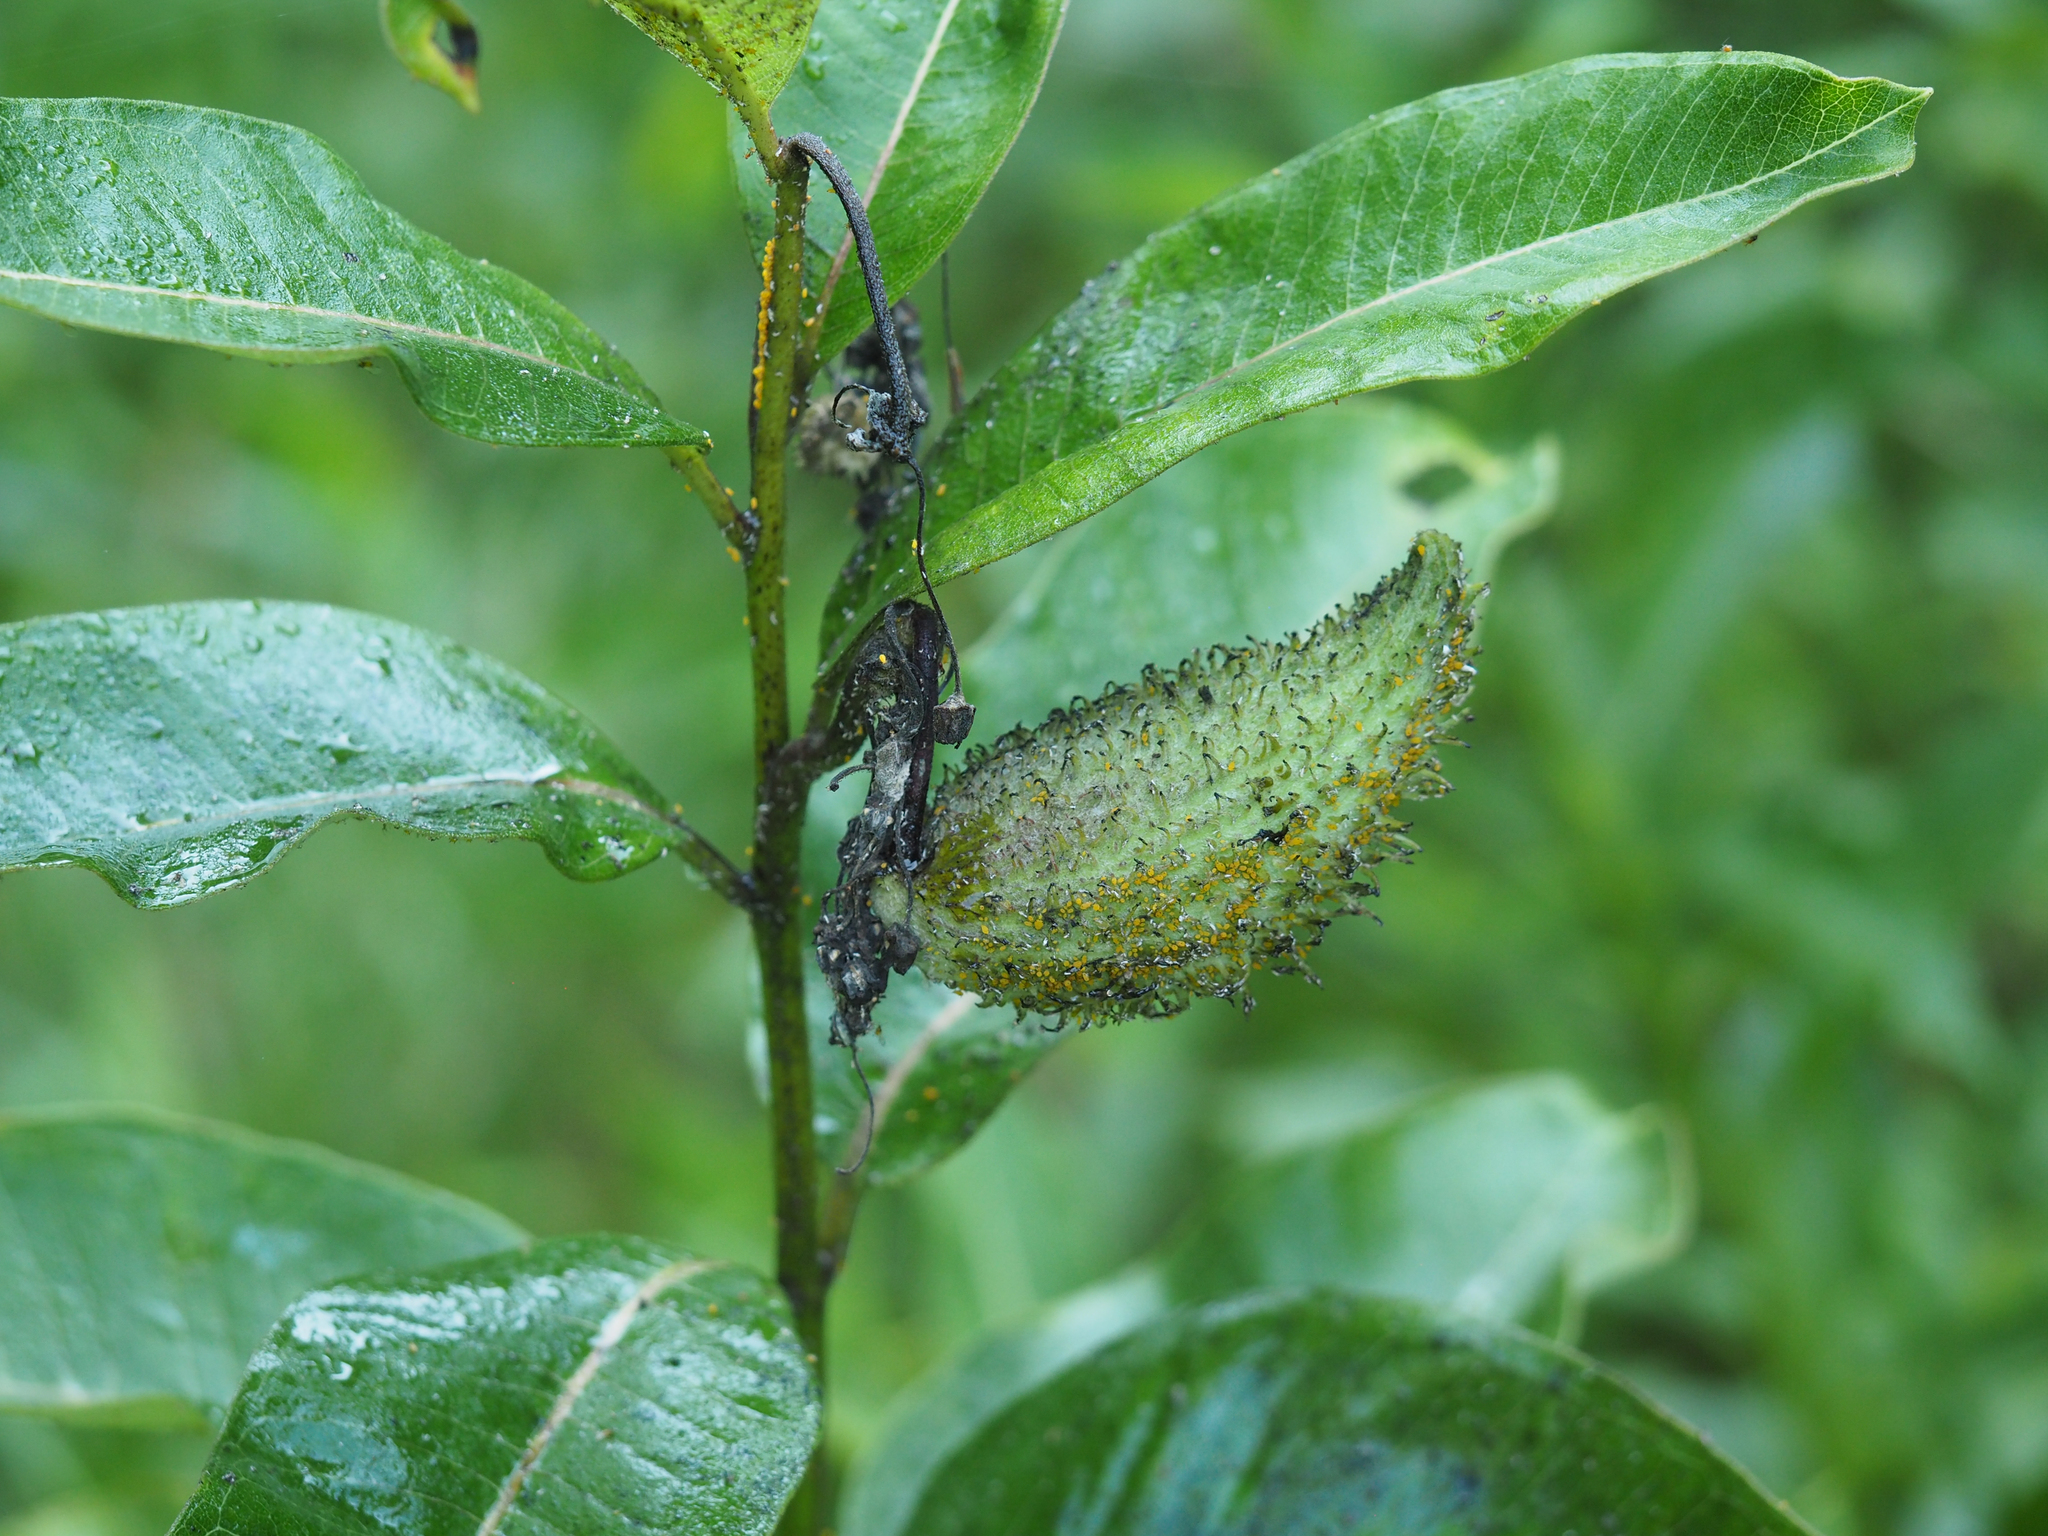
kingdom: Plantae
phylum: Tracheophyta
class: Magnoliopsida
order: Gentianales
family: Apocynaceae
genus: Asclepias
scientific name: Asclepias syriaca
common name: Common milkweed
